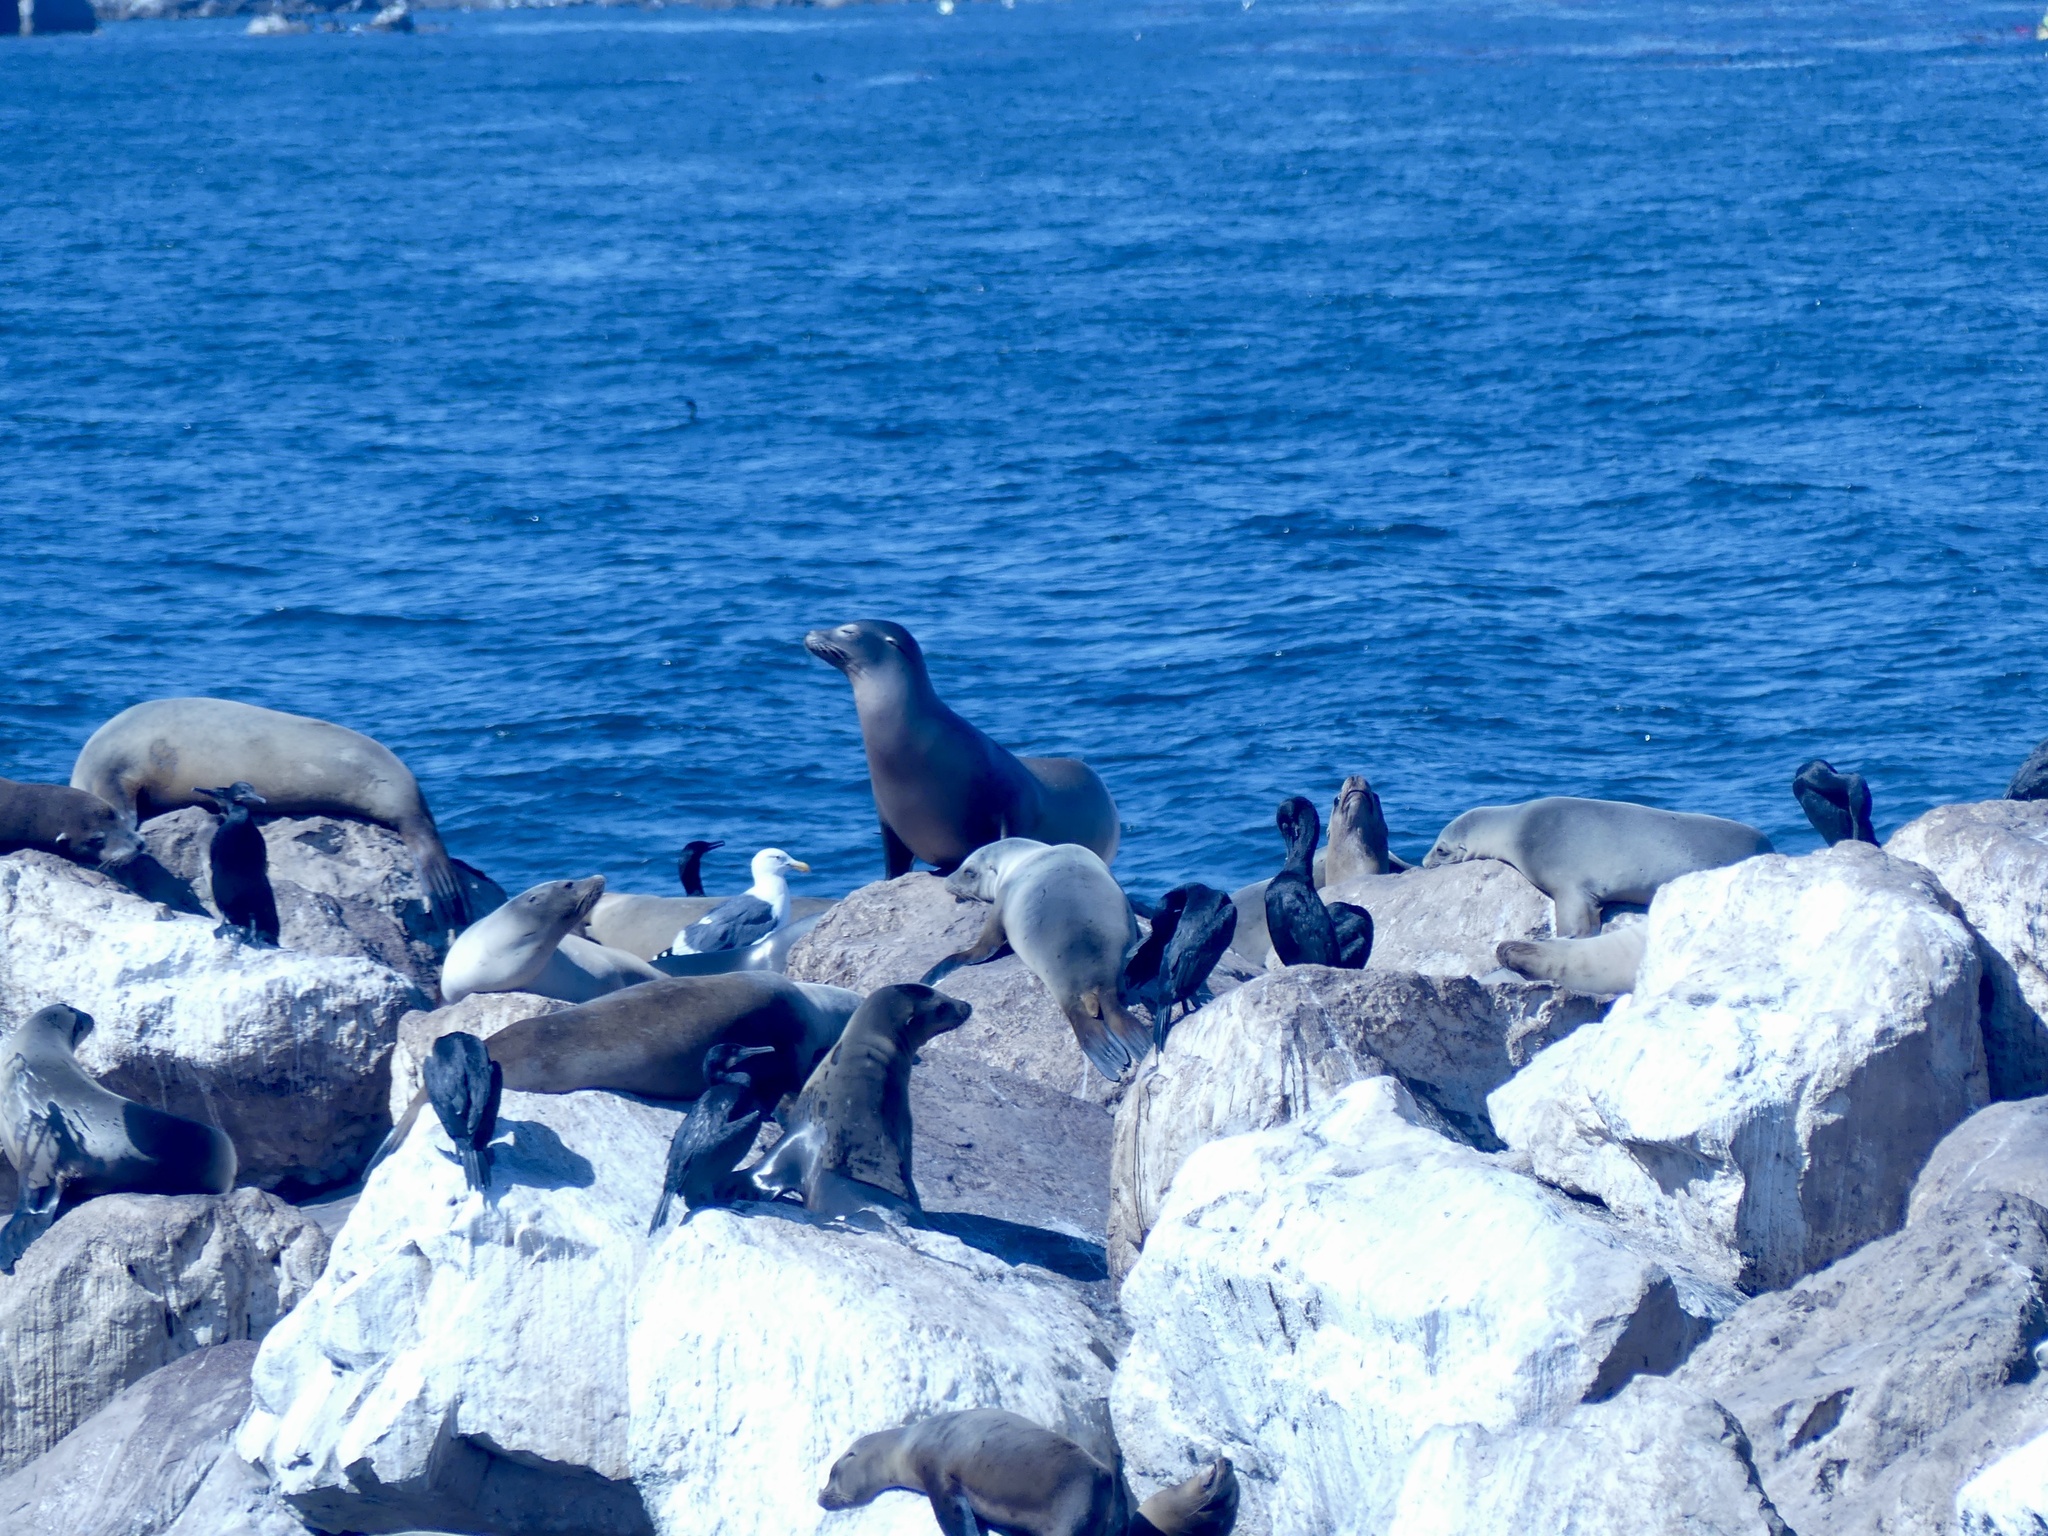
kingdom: Animalia
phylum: Chordata
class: Mammalia
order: Carnivora
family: Otariidae
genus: Zalophus
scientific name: Zalophus californianus
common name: California sea lion
